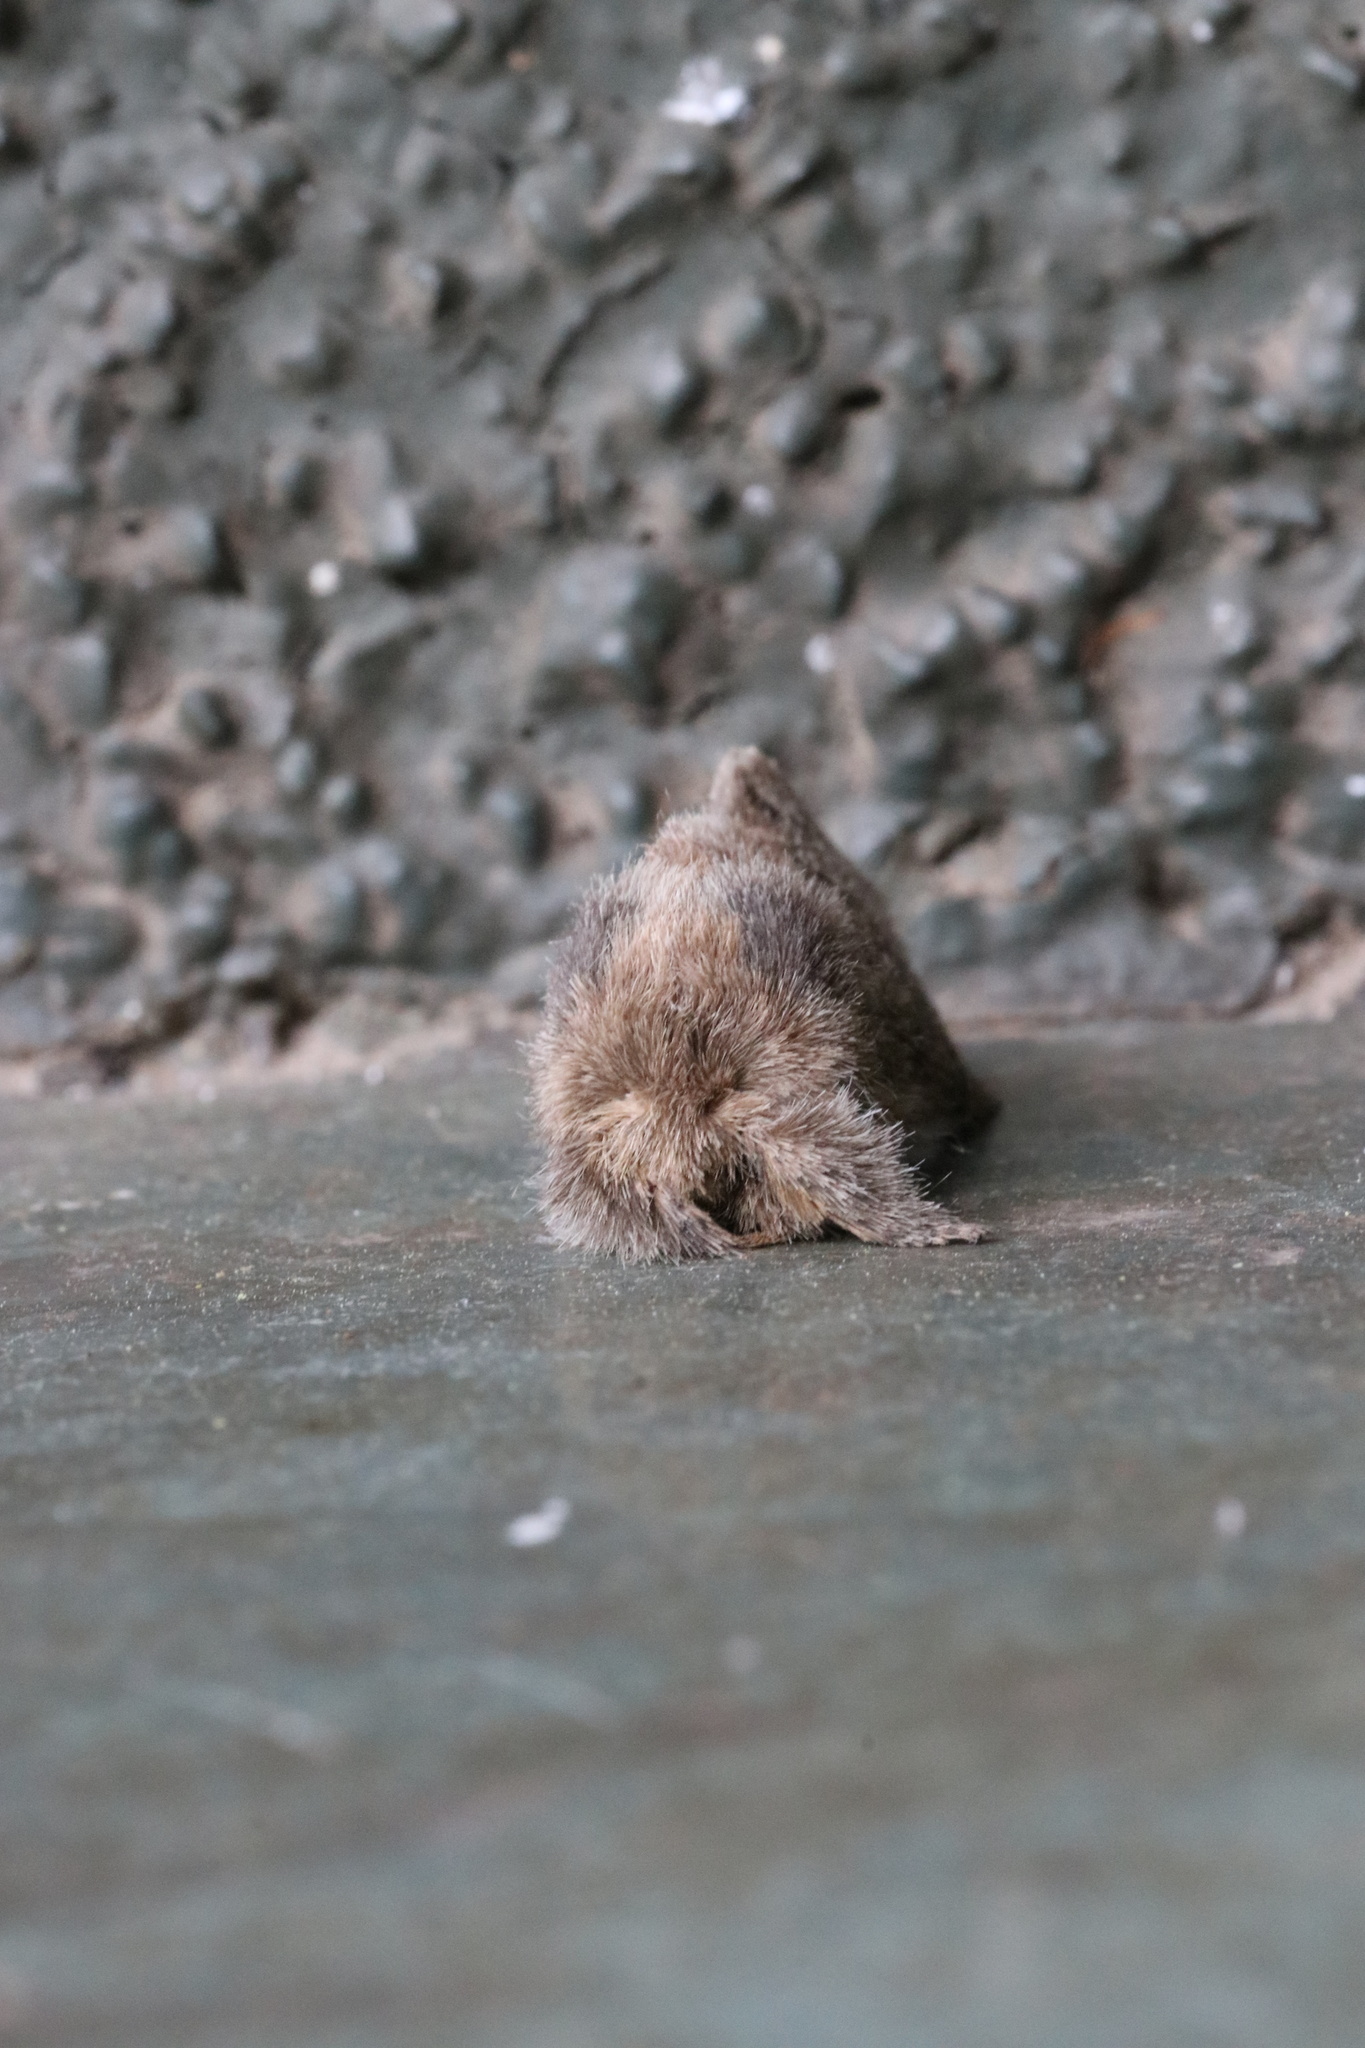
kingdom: Animalia
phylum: Arthropoda
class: Insecta
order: Lepidoptera
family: Lasiocampidae
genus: Macromphalia
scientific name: Macromphalia ancilla
